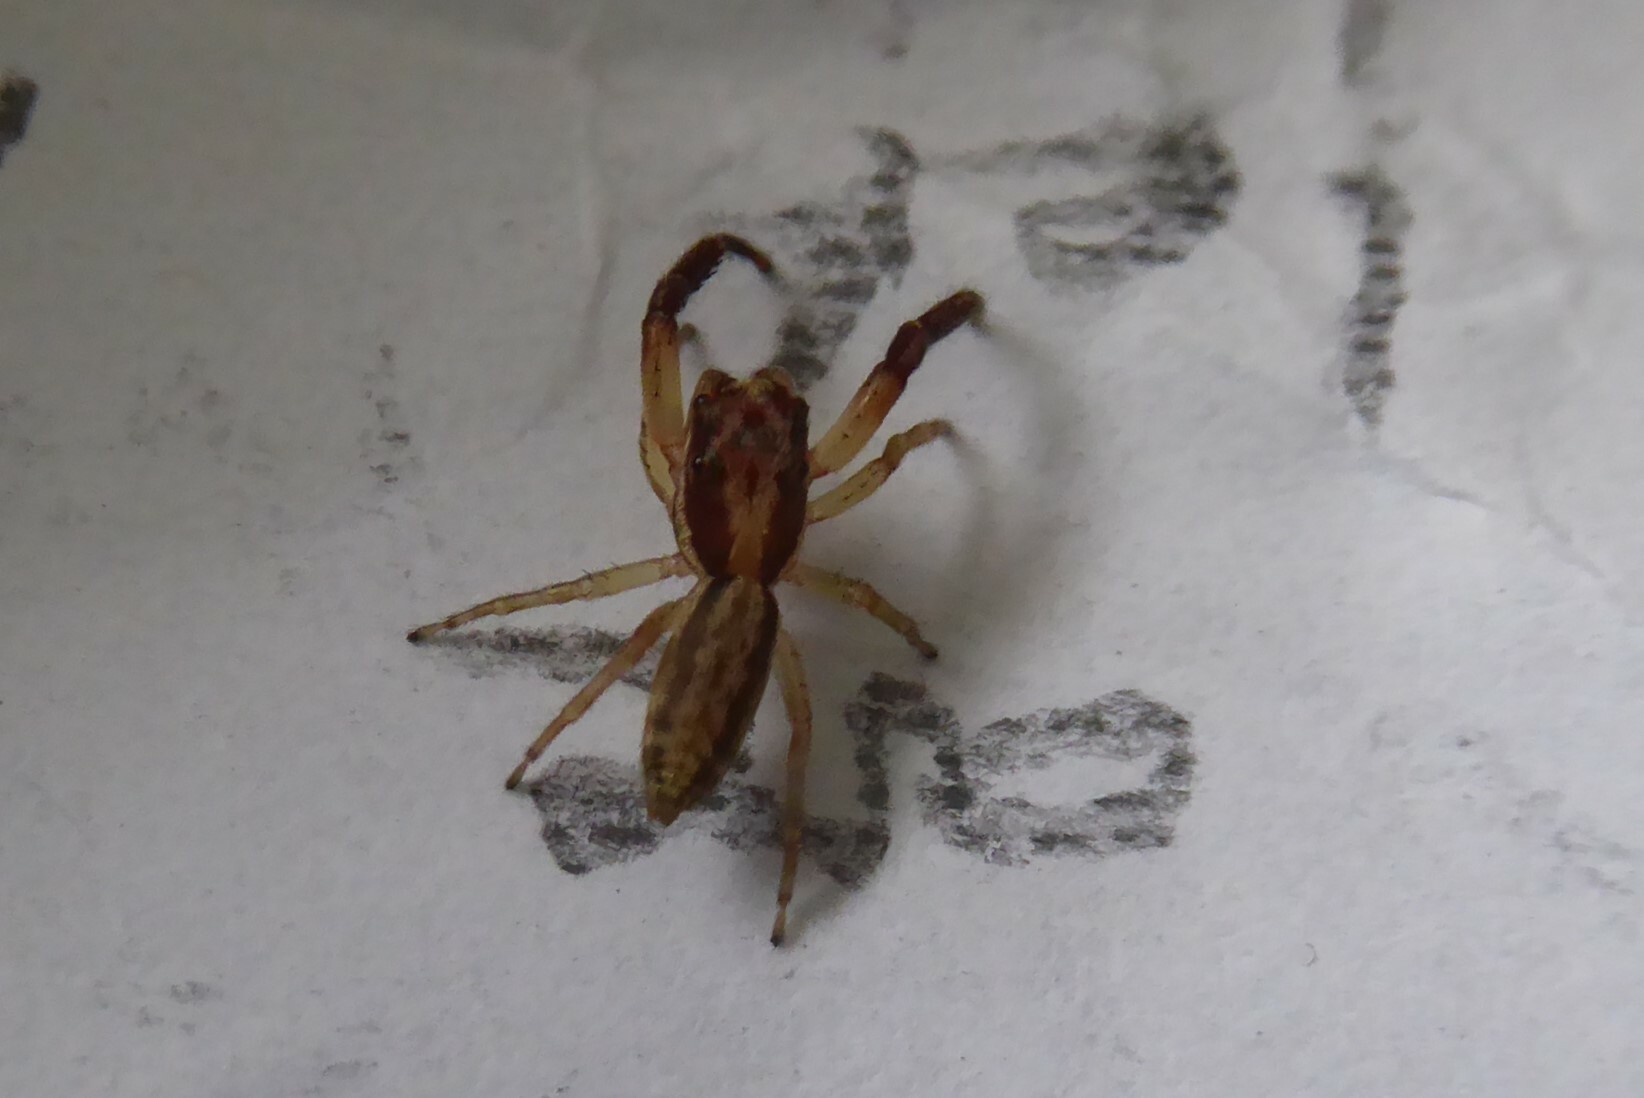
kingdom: Animalia
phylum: Arthropoda
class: Arachnida
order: Araneae
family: Salticidae
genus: Trite
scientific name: Trite mustilina
